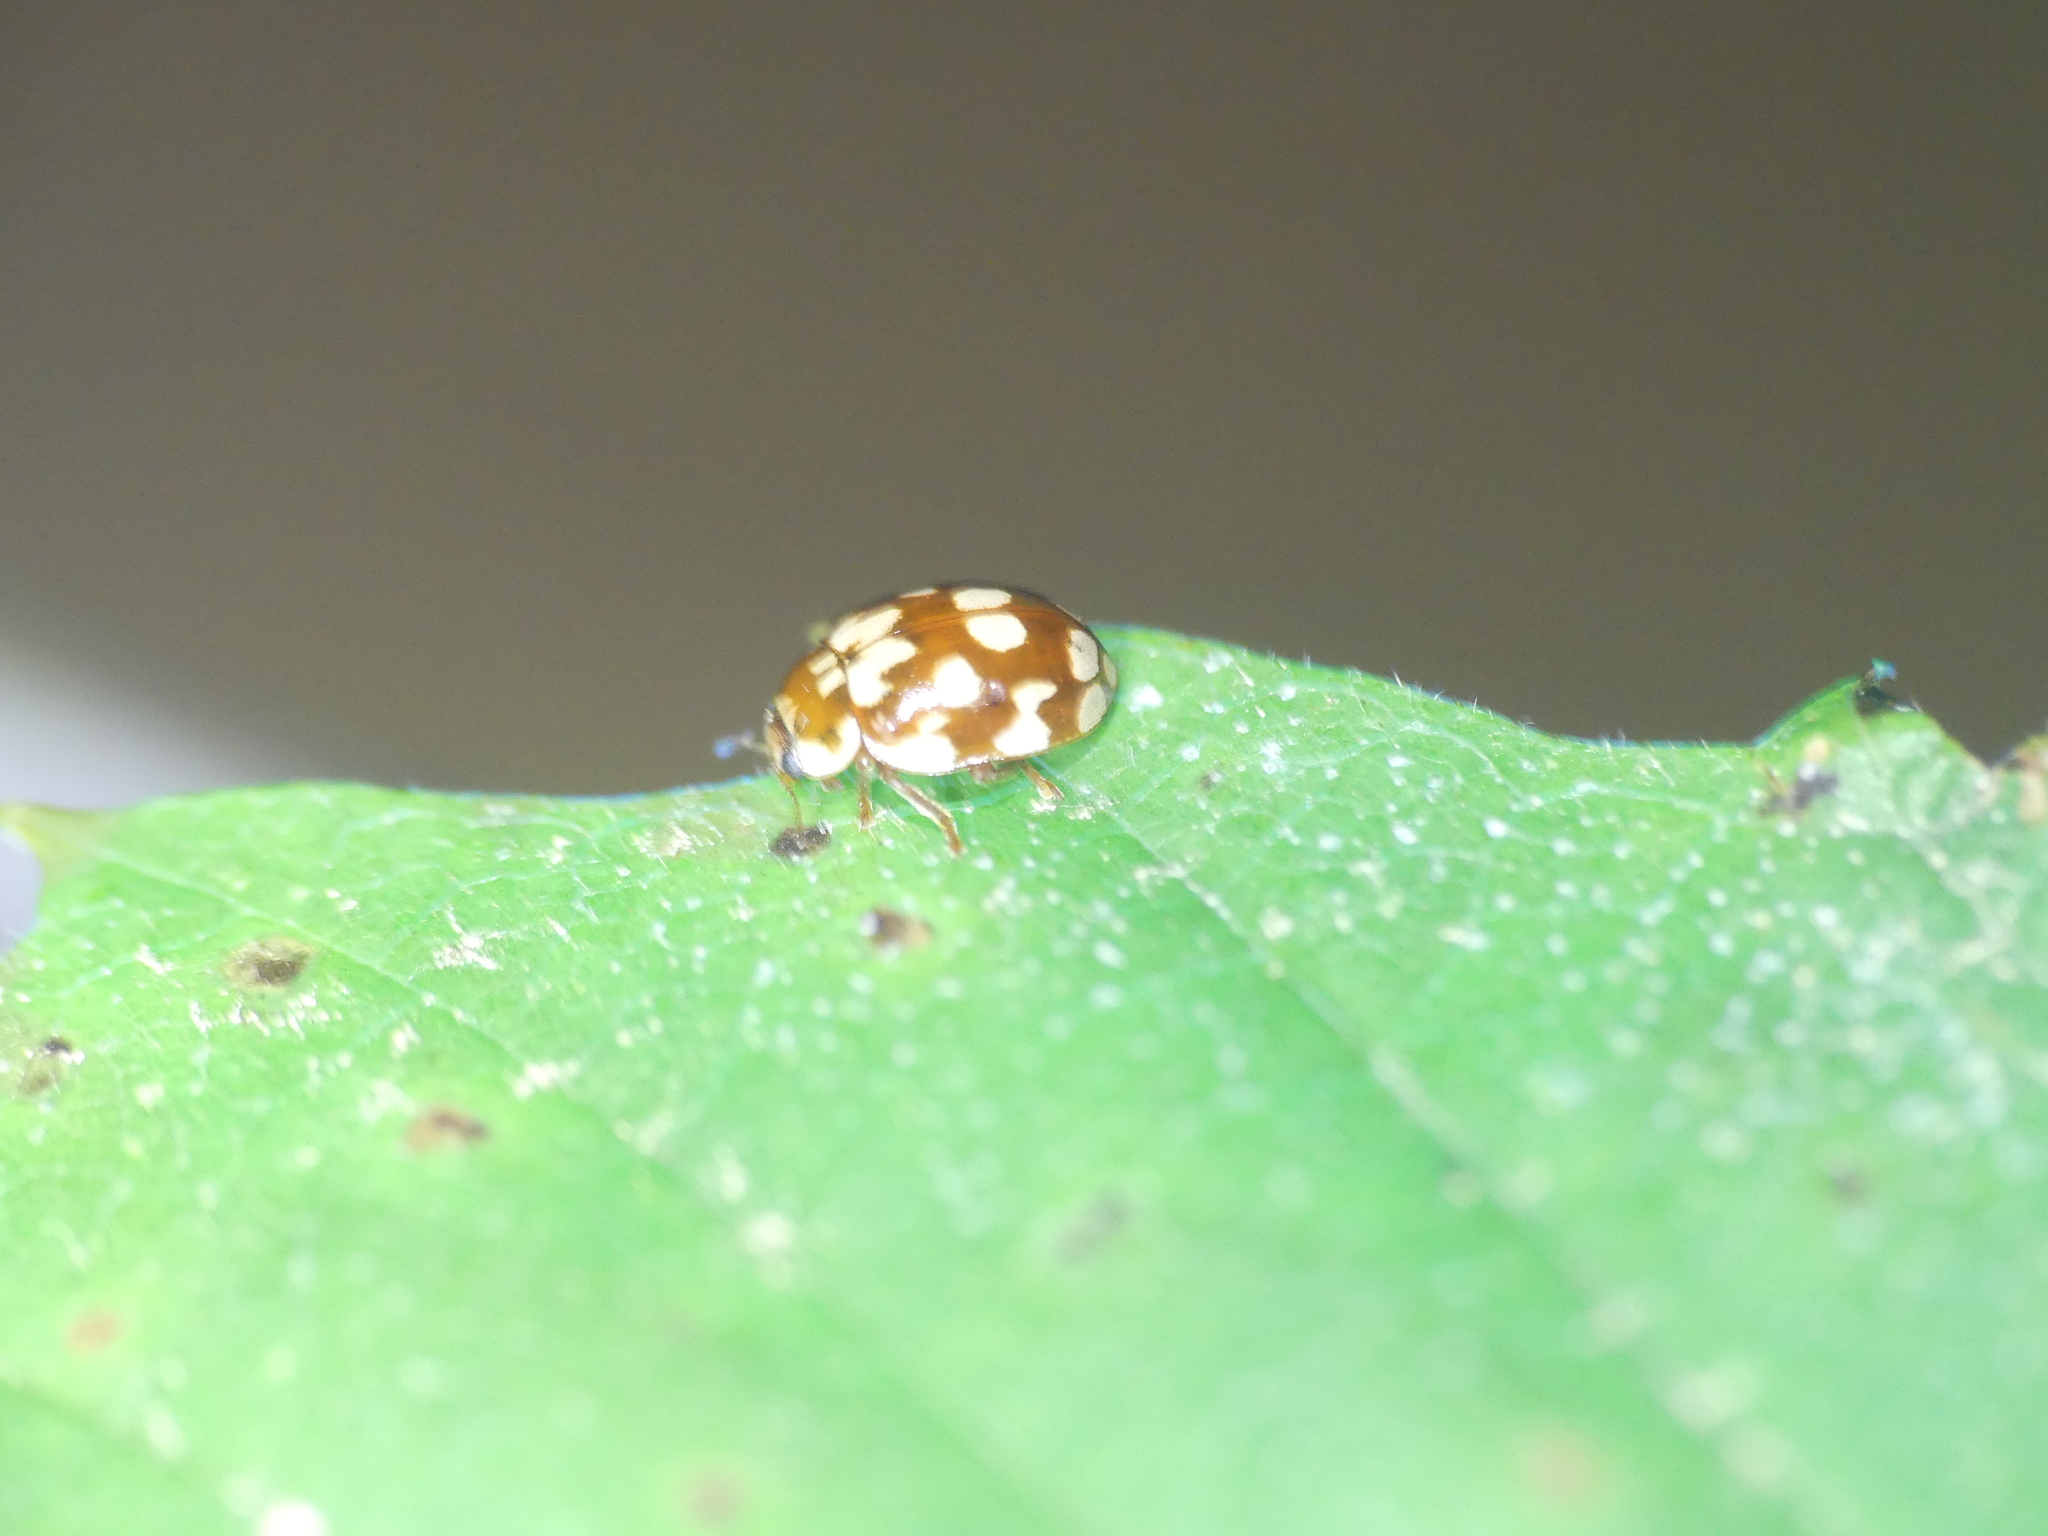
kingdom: Animalia
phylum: Arthropoda
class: Insecta
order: Coleoptera
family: Coccinellidae
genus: Myrrha
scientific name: Myrrha octodecimguttata
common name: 18-spot ladybird
